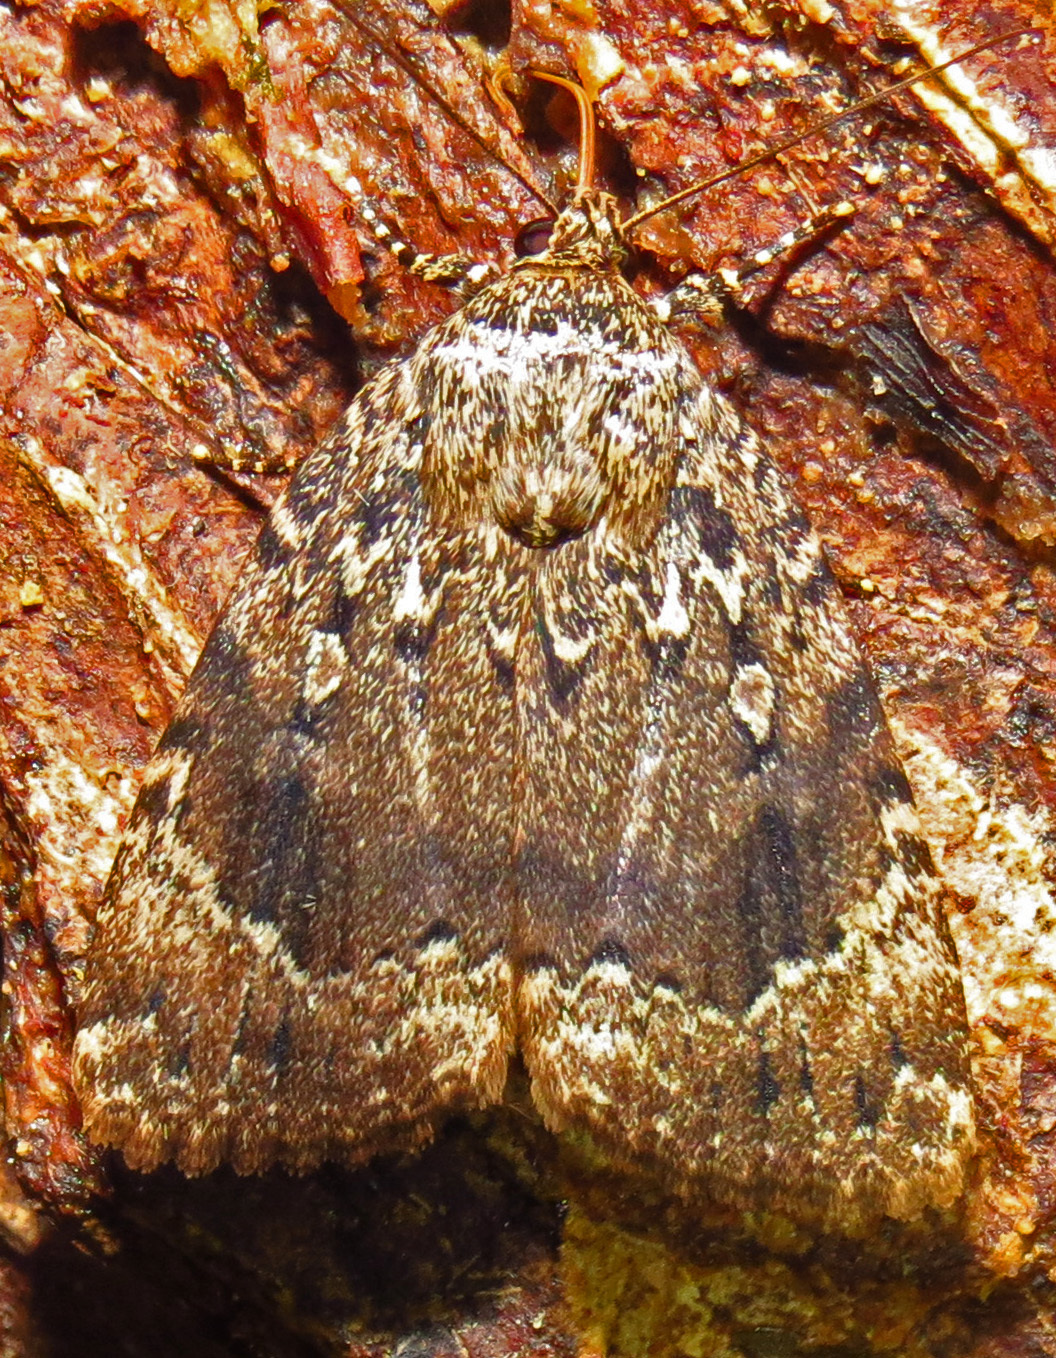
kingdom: Animalia
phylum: Arthropoda
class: Insecta
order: Lepidoptera
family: Noctuidae
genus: Amphipyra
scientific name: Amphipyra pyramidoides
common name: American copper underwing
